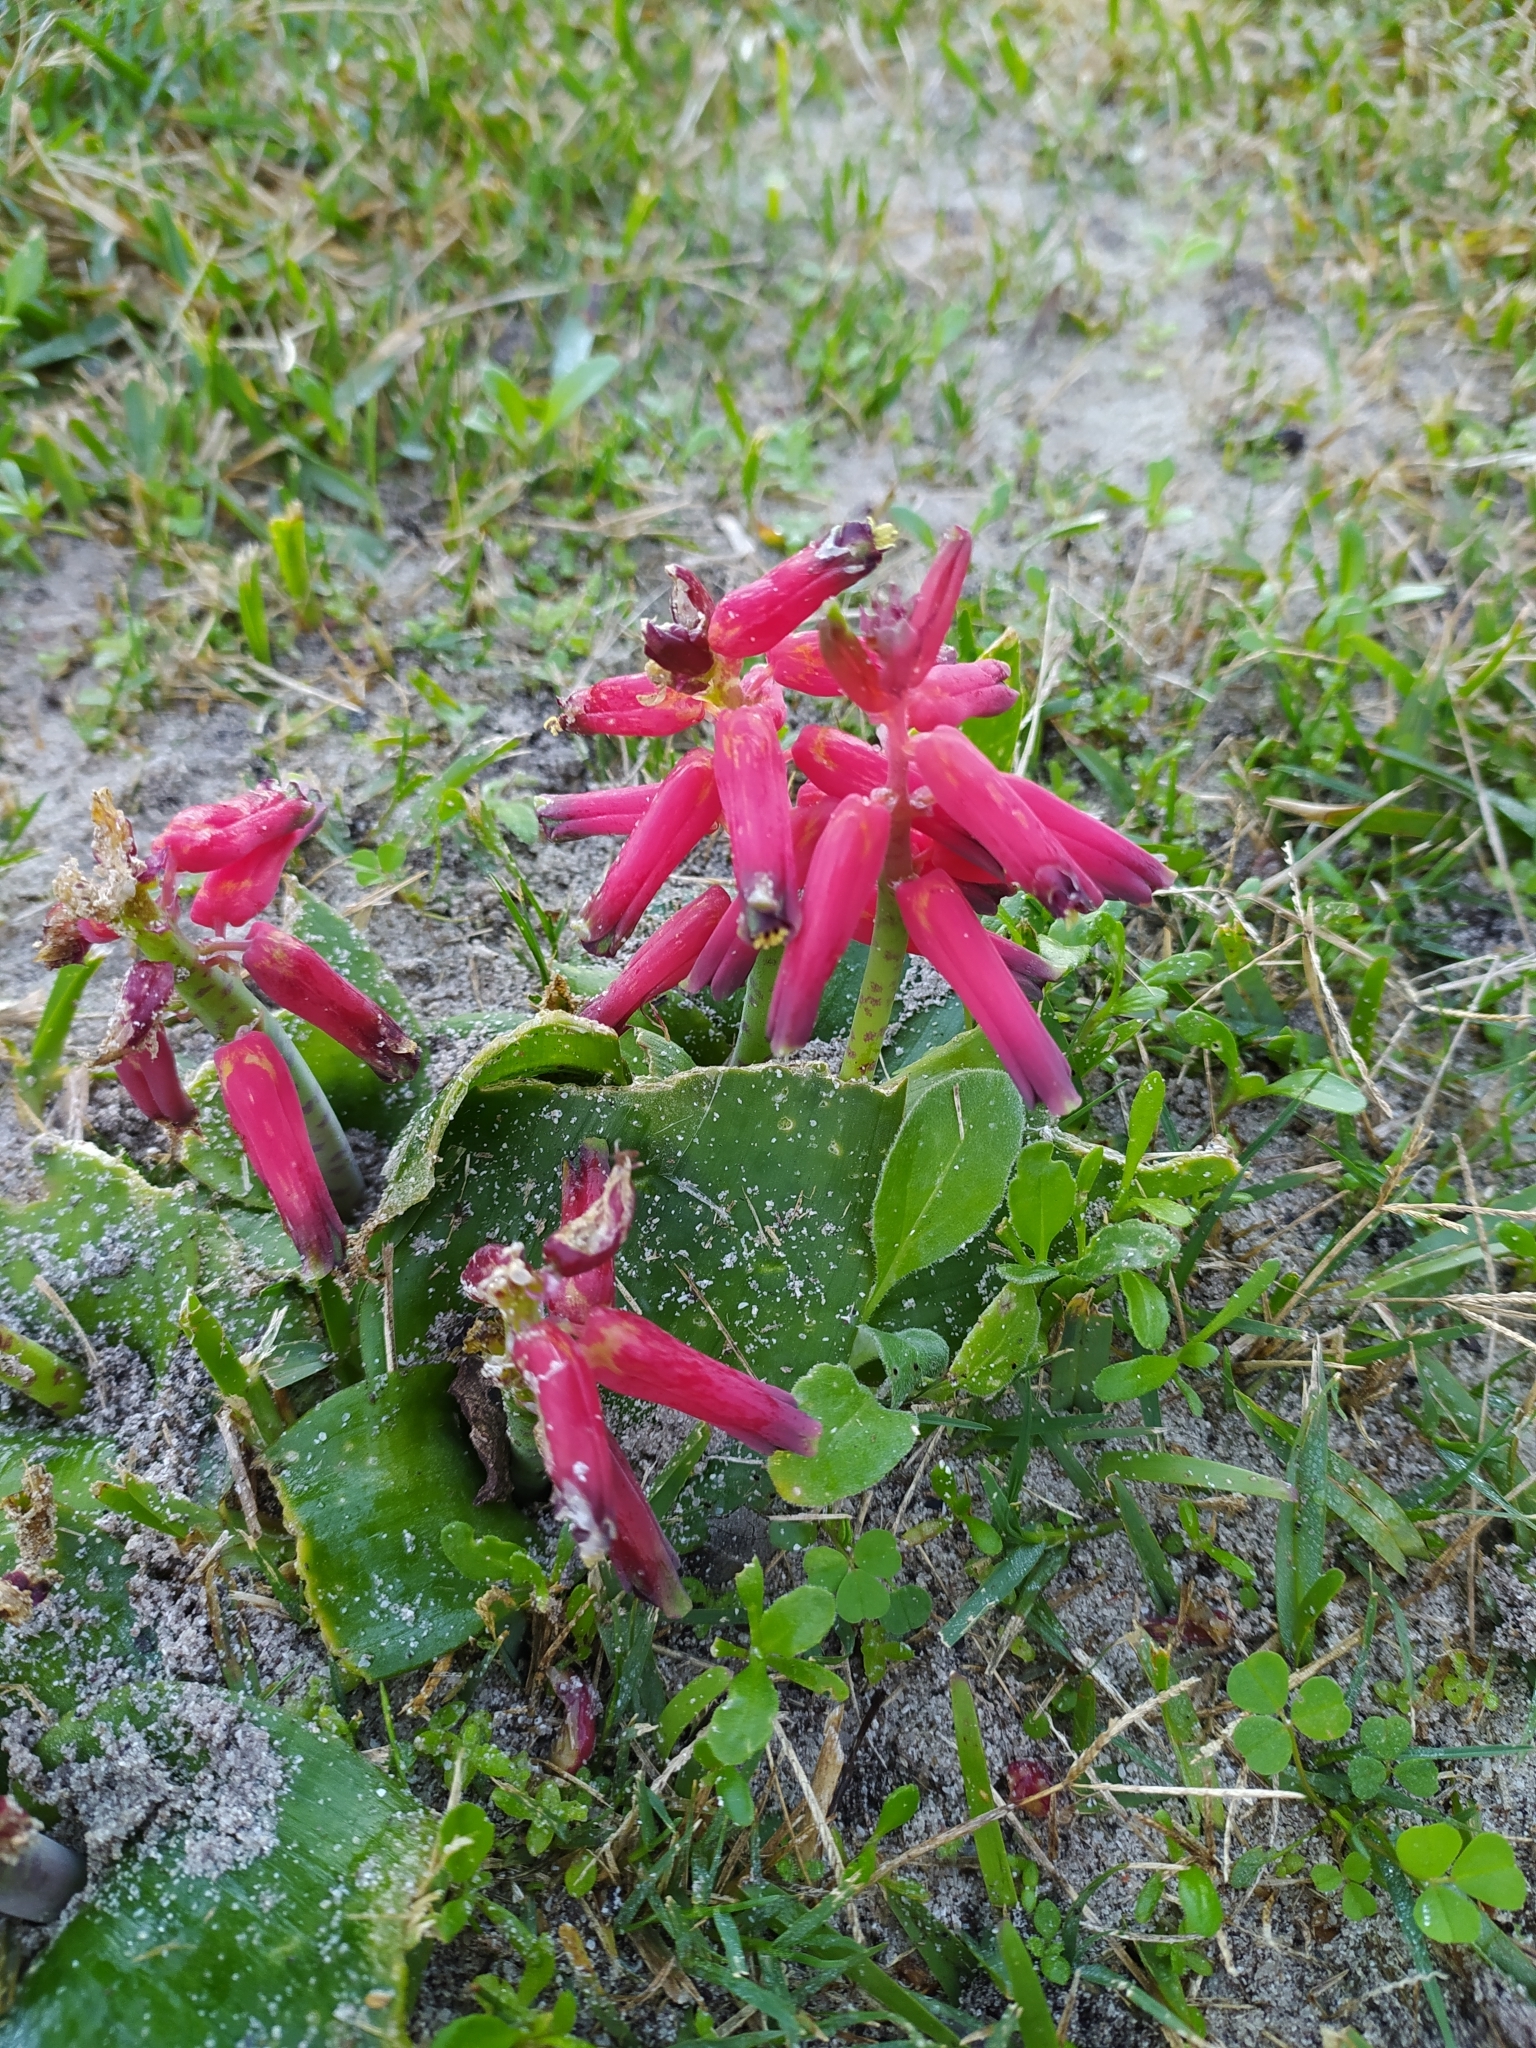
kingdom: Plantae
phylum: Tracheophyta
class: Liliopsida
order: Asparagales
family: Asparagaceae
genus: Lachenalia
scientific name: Lachenalia bulbifera
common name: Red lachenalia
